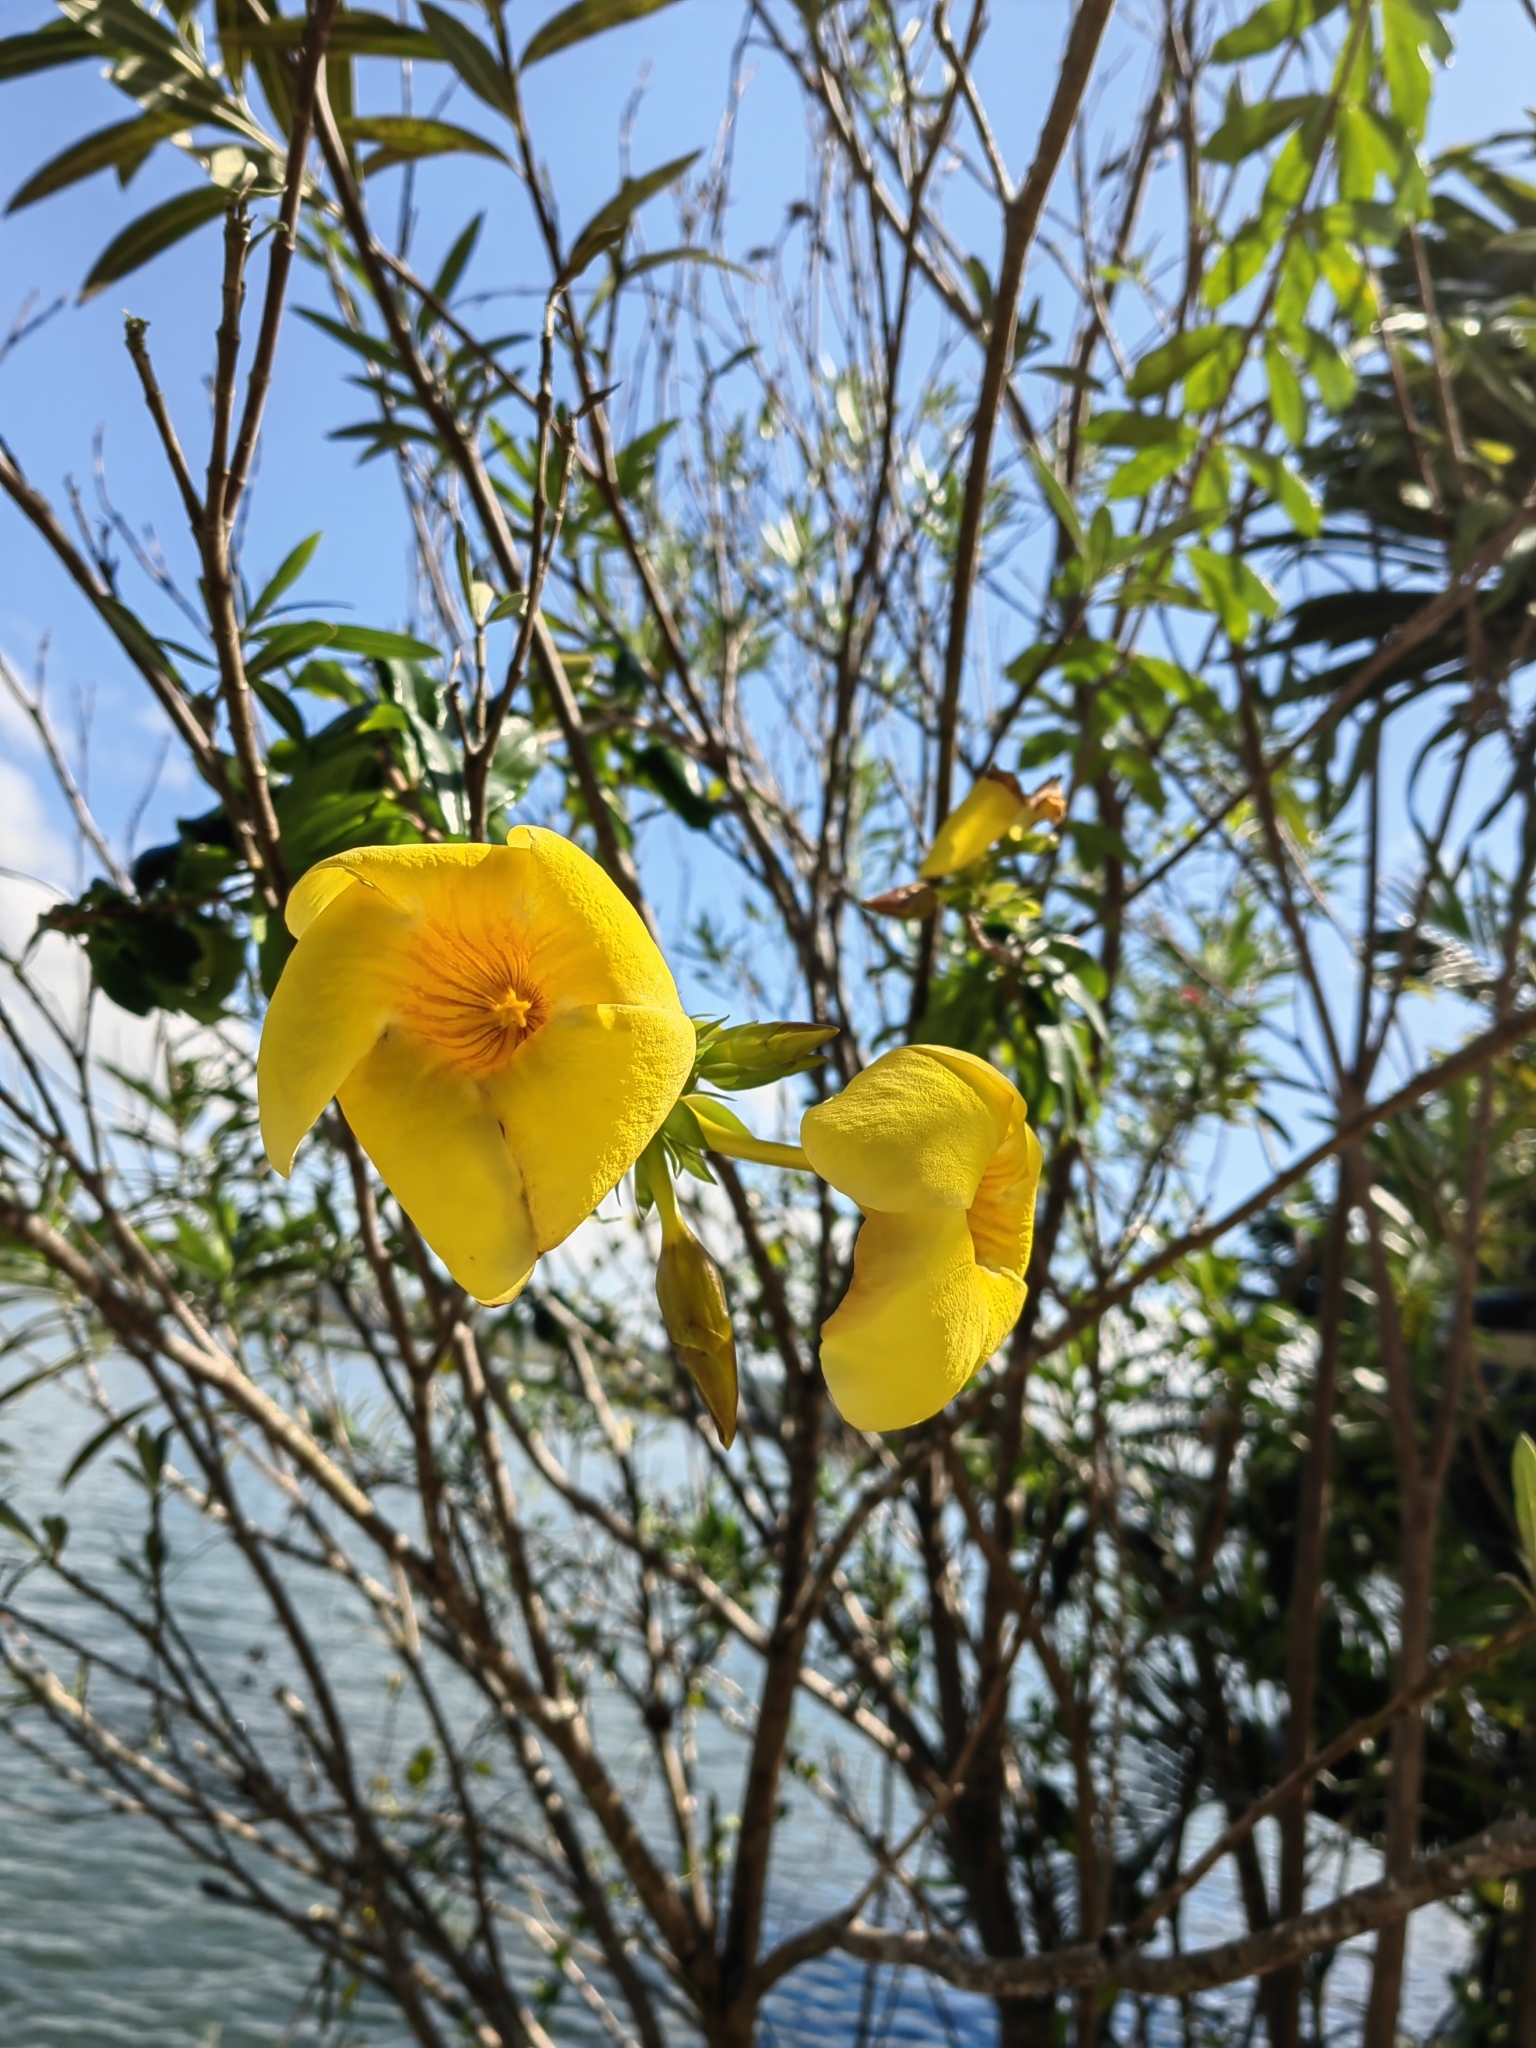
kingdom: Plantae
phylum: Tracheophyta
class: Magnoliopsida
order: Gentianales
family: Apocynaceae
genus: Allamanda
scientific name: Allamanda cathartica
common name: Golden trumpet
